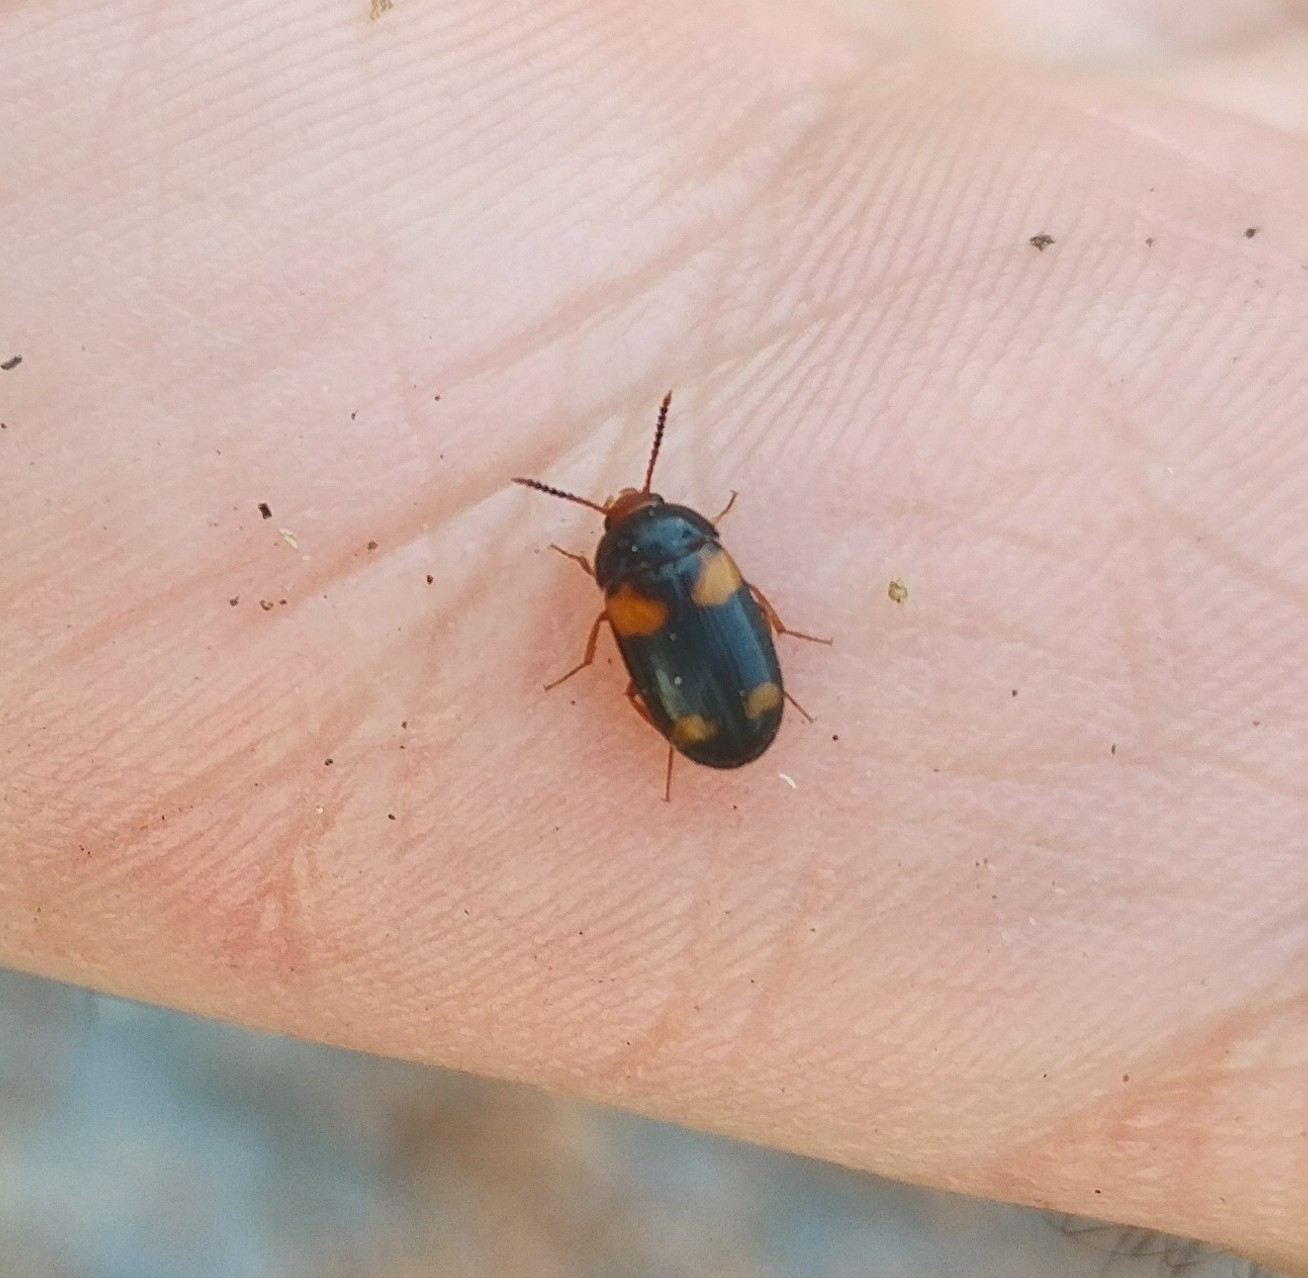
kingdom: Animalia
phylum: Arthropoda
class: Insecta
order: Coleoptera
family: Mycetophagidae
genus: Mycetophagus
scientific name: Mycetophagus quadripustulatus
